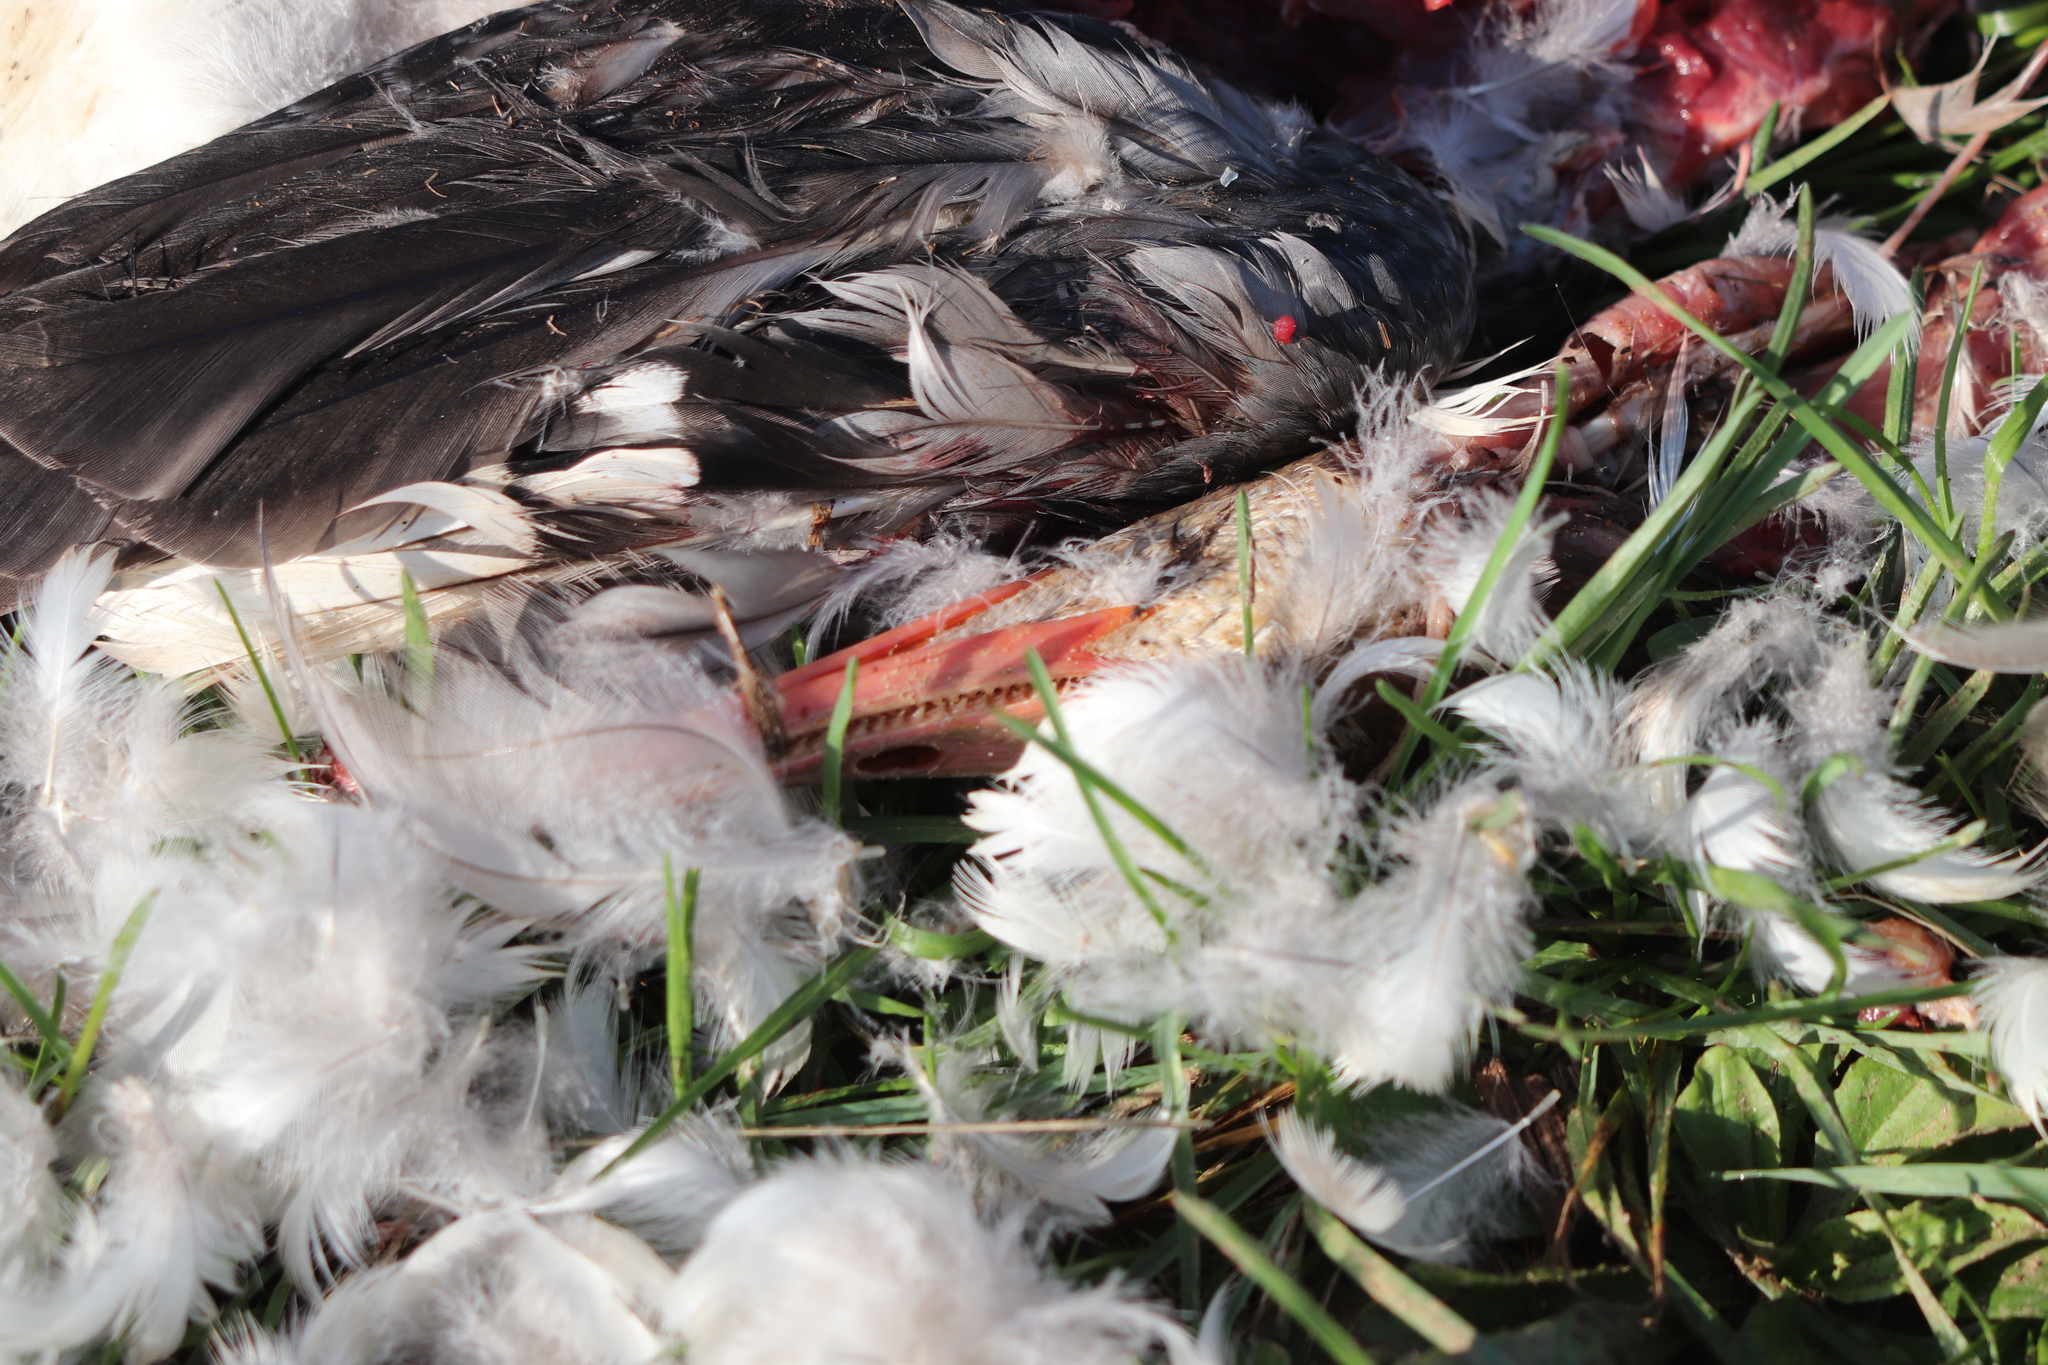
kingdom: Animalia
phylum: Chordata
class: Aves
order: Anseriformes
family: Anatidae
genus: Mergus
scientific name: Mergus merganser
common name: Common merganser
